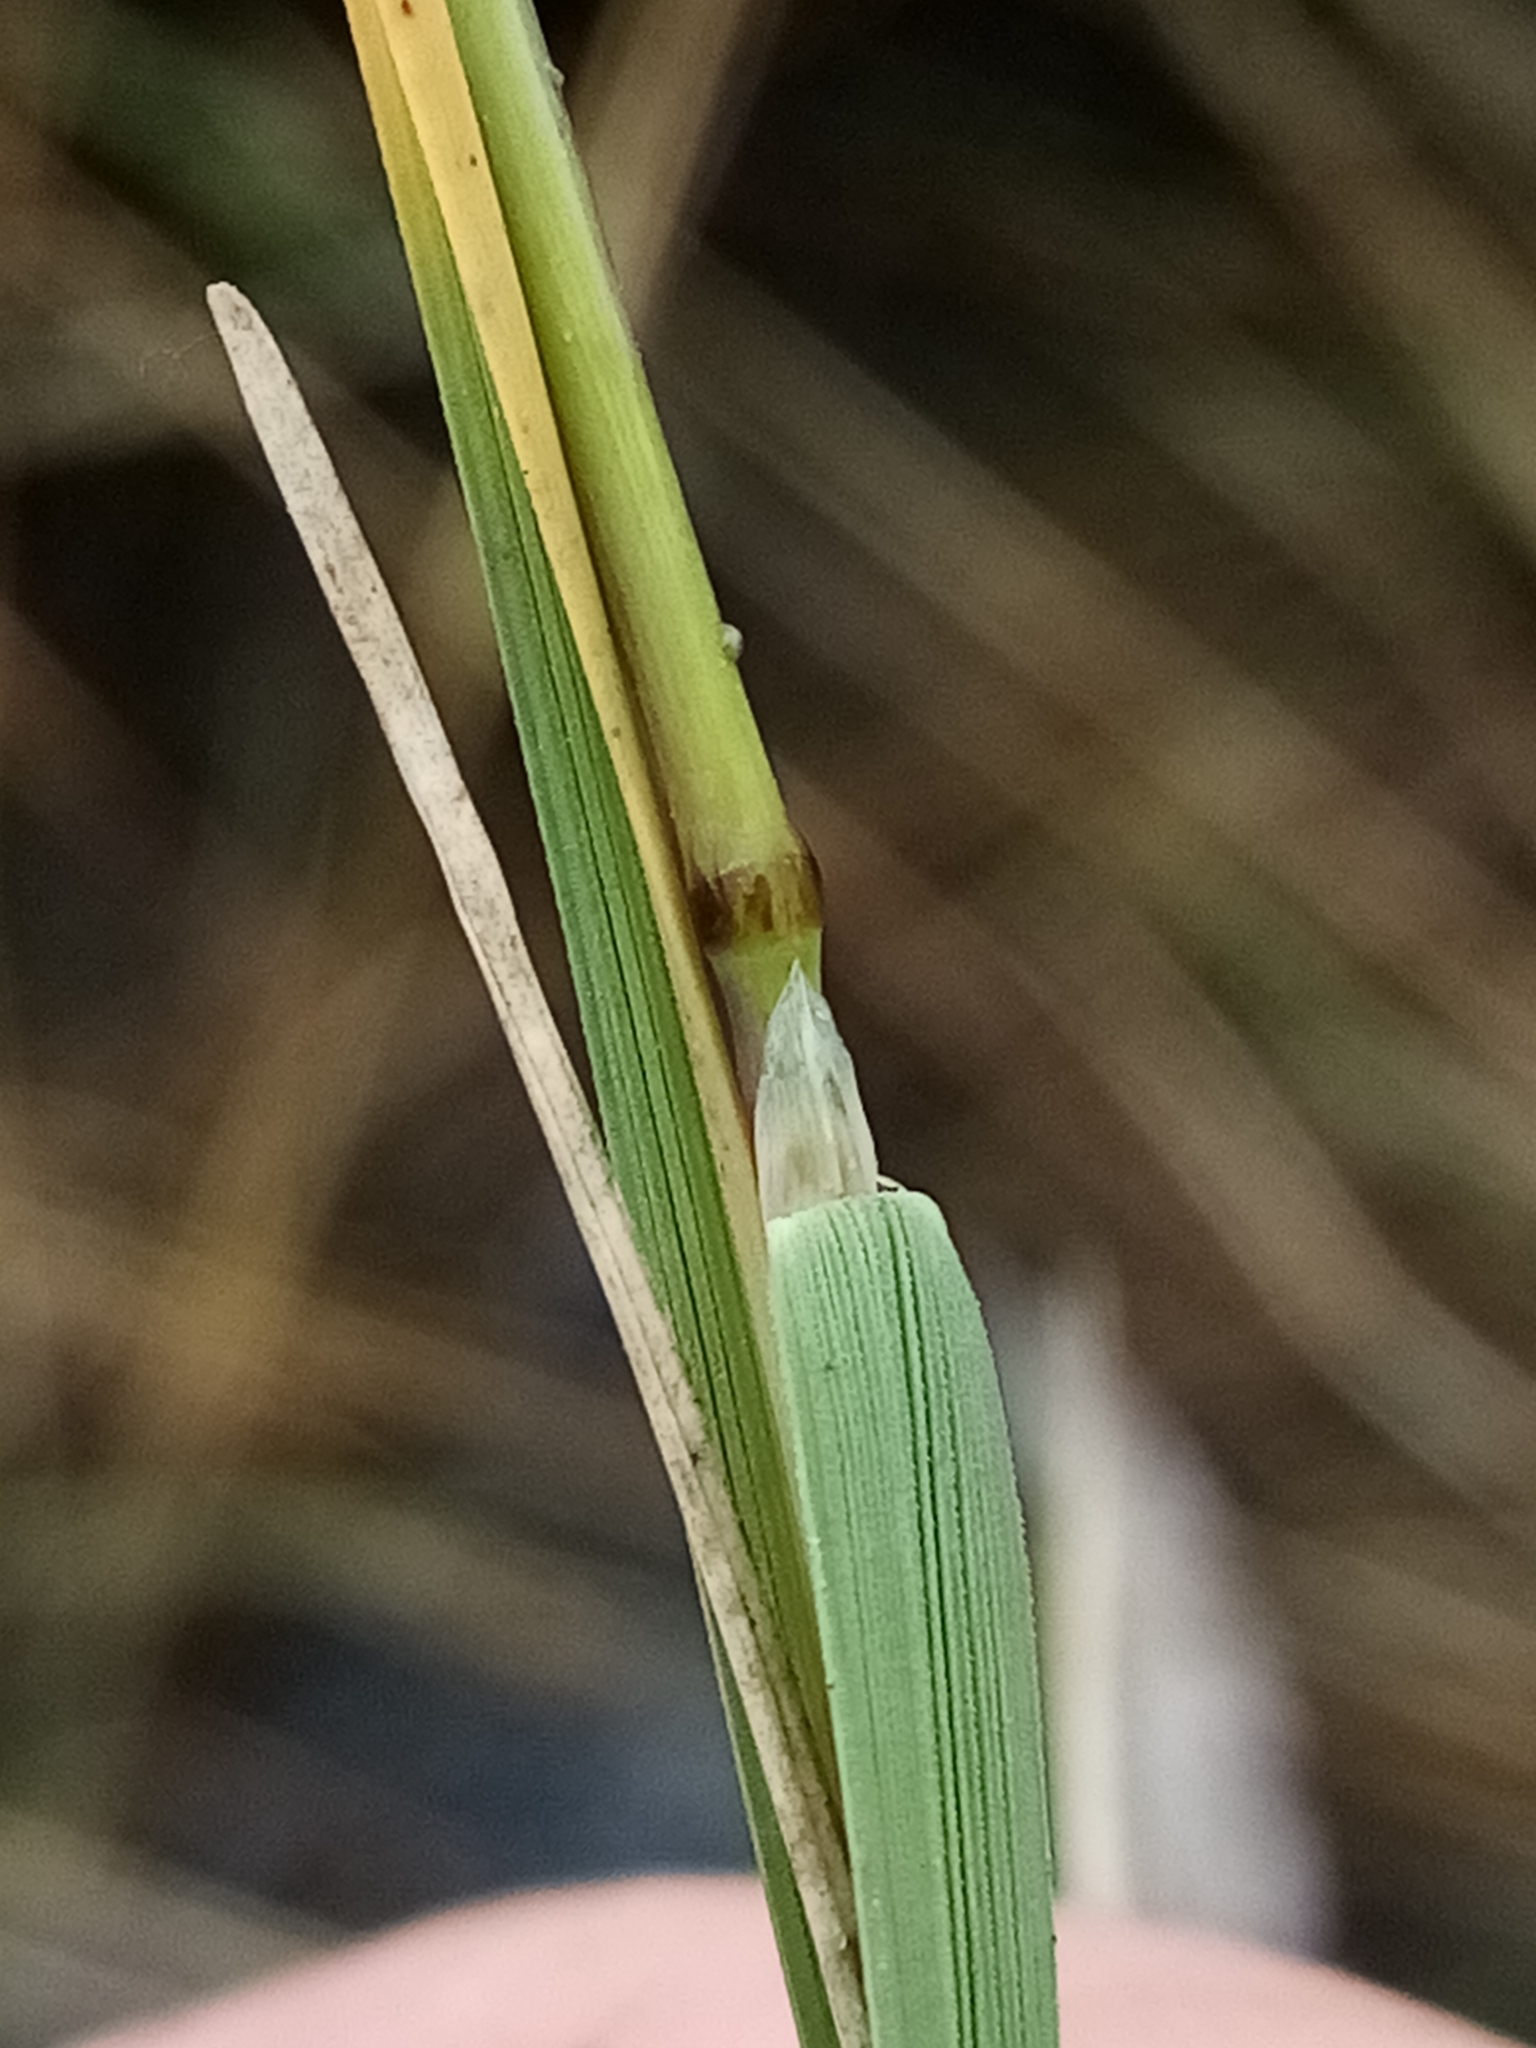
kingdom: Plantae
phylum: Tracheophyta
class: Liliopsida
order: Poales
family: Poaceae
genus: Puccinellia
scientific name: Puccinellia distans
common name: Weeping alkaligrass
